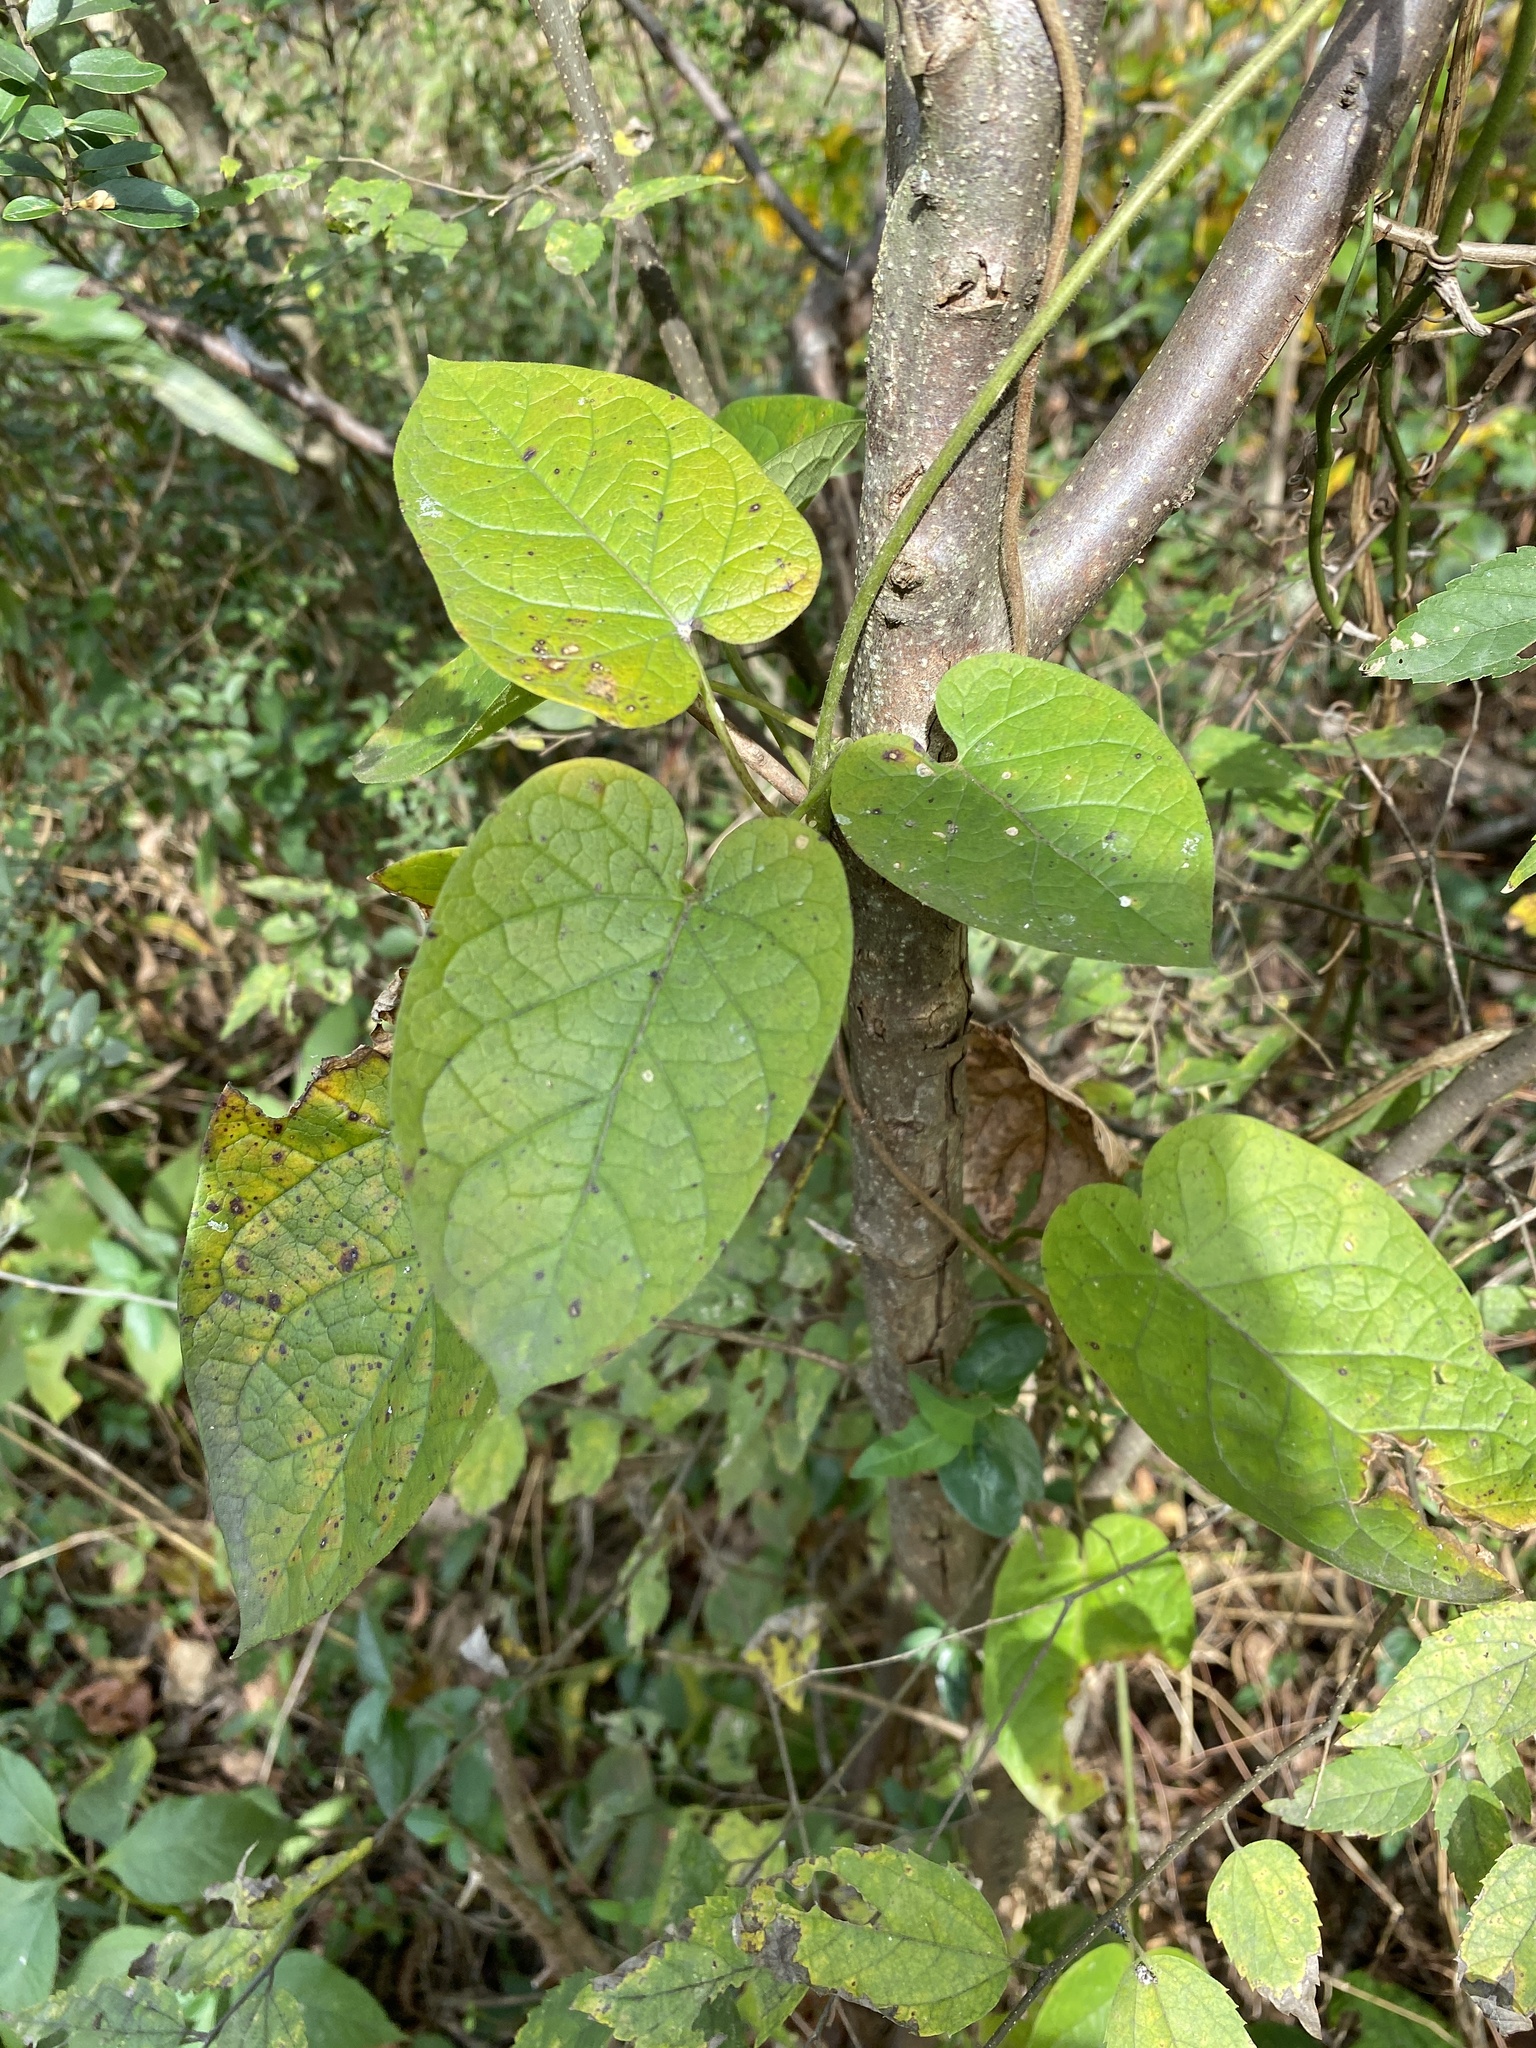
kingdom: Plantae
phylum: Tracheophyta
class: Magnoliopsida
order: Gentianales
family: Apocynaceae
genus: Gonolobus
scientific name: Gonolobus suberosus
